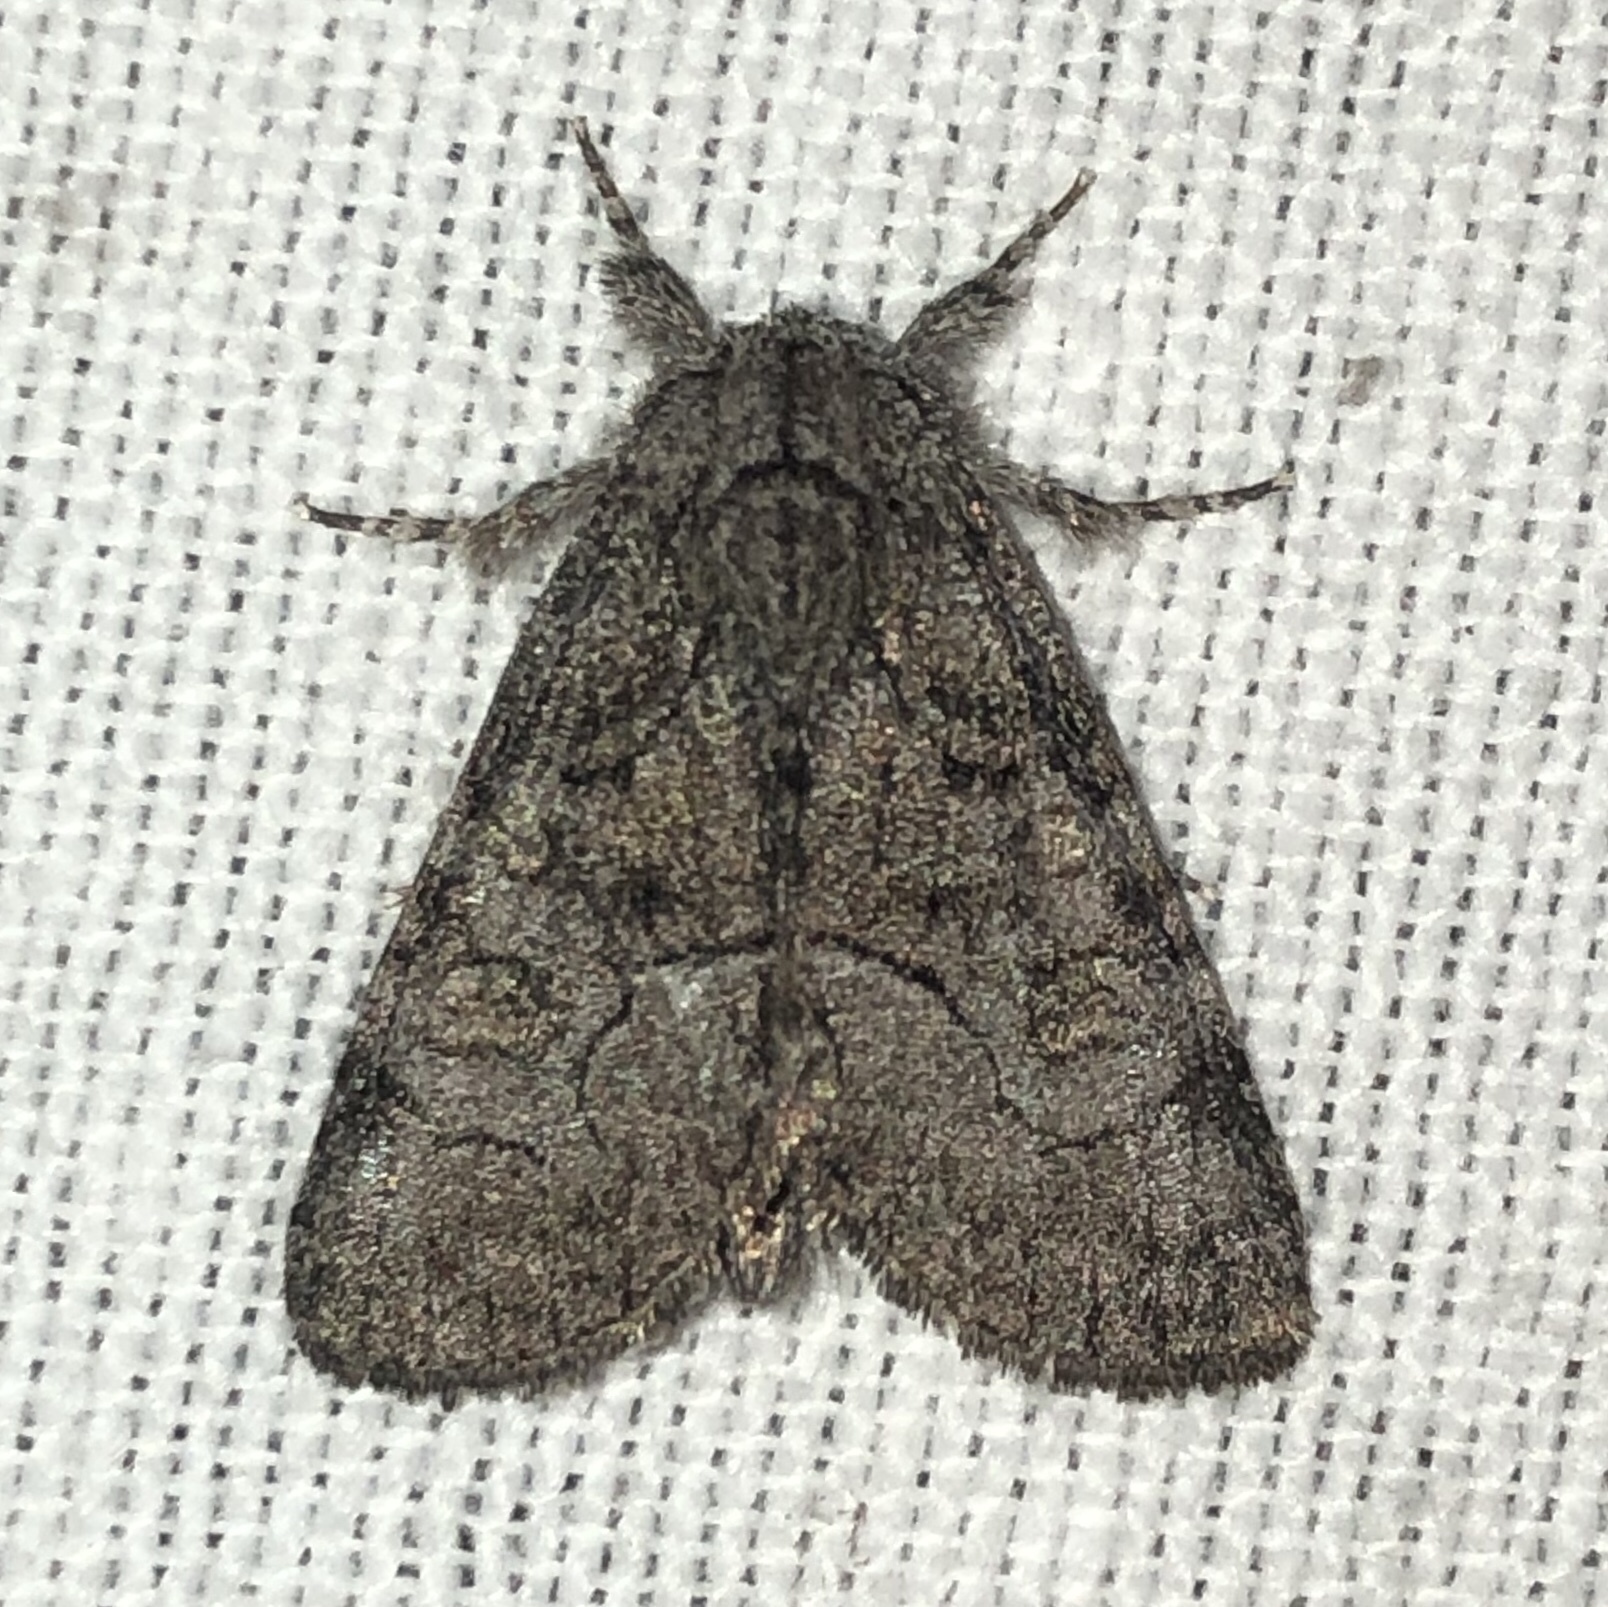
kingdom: Animalia
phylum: Arthropoda
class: Insecta
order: Lepidoptera
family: Noctuidae
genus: Raphia
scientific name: Raphia frater
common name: Brother
